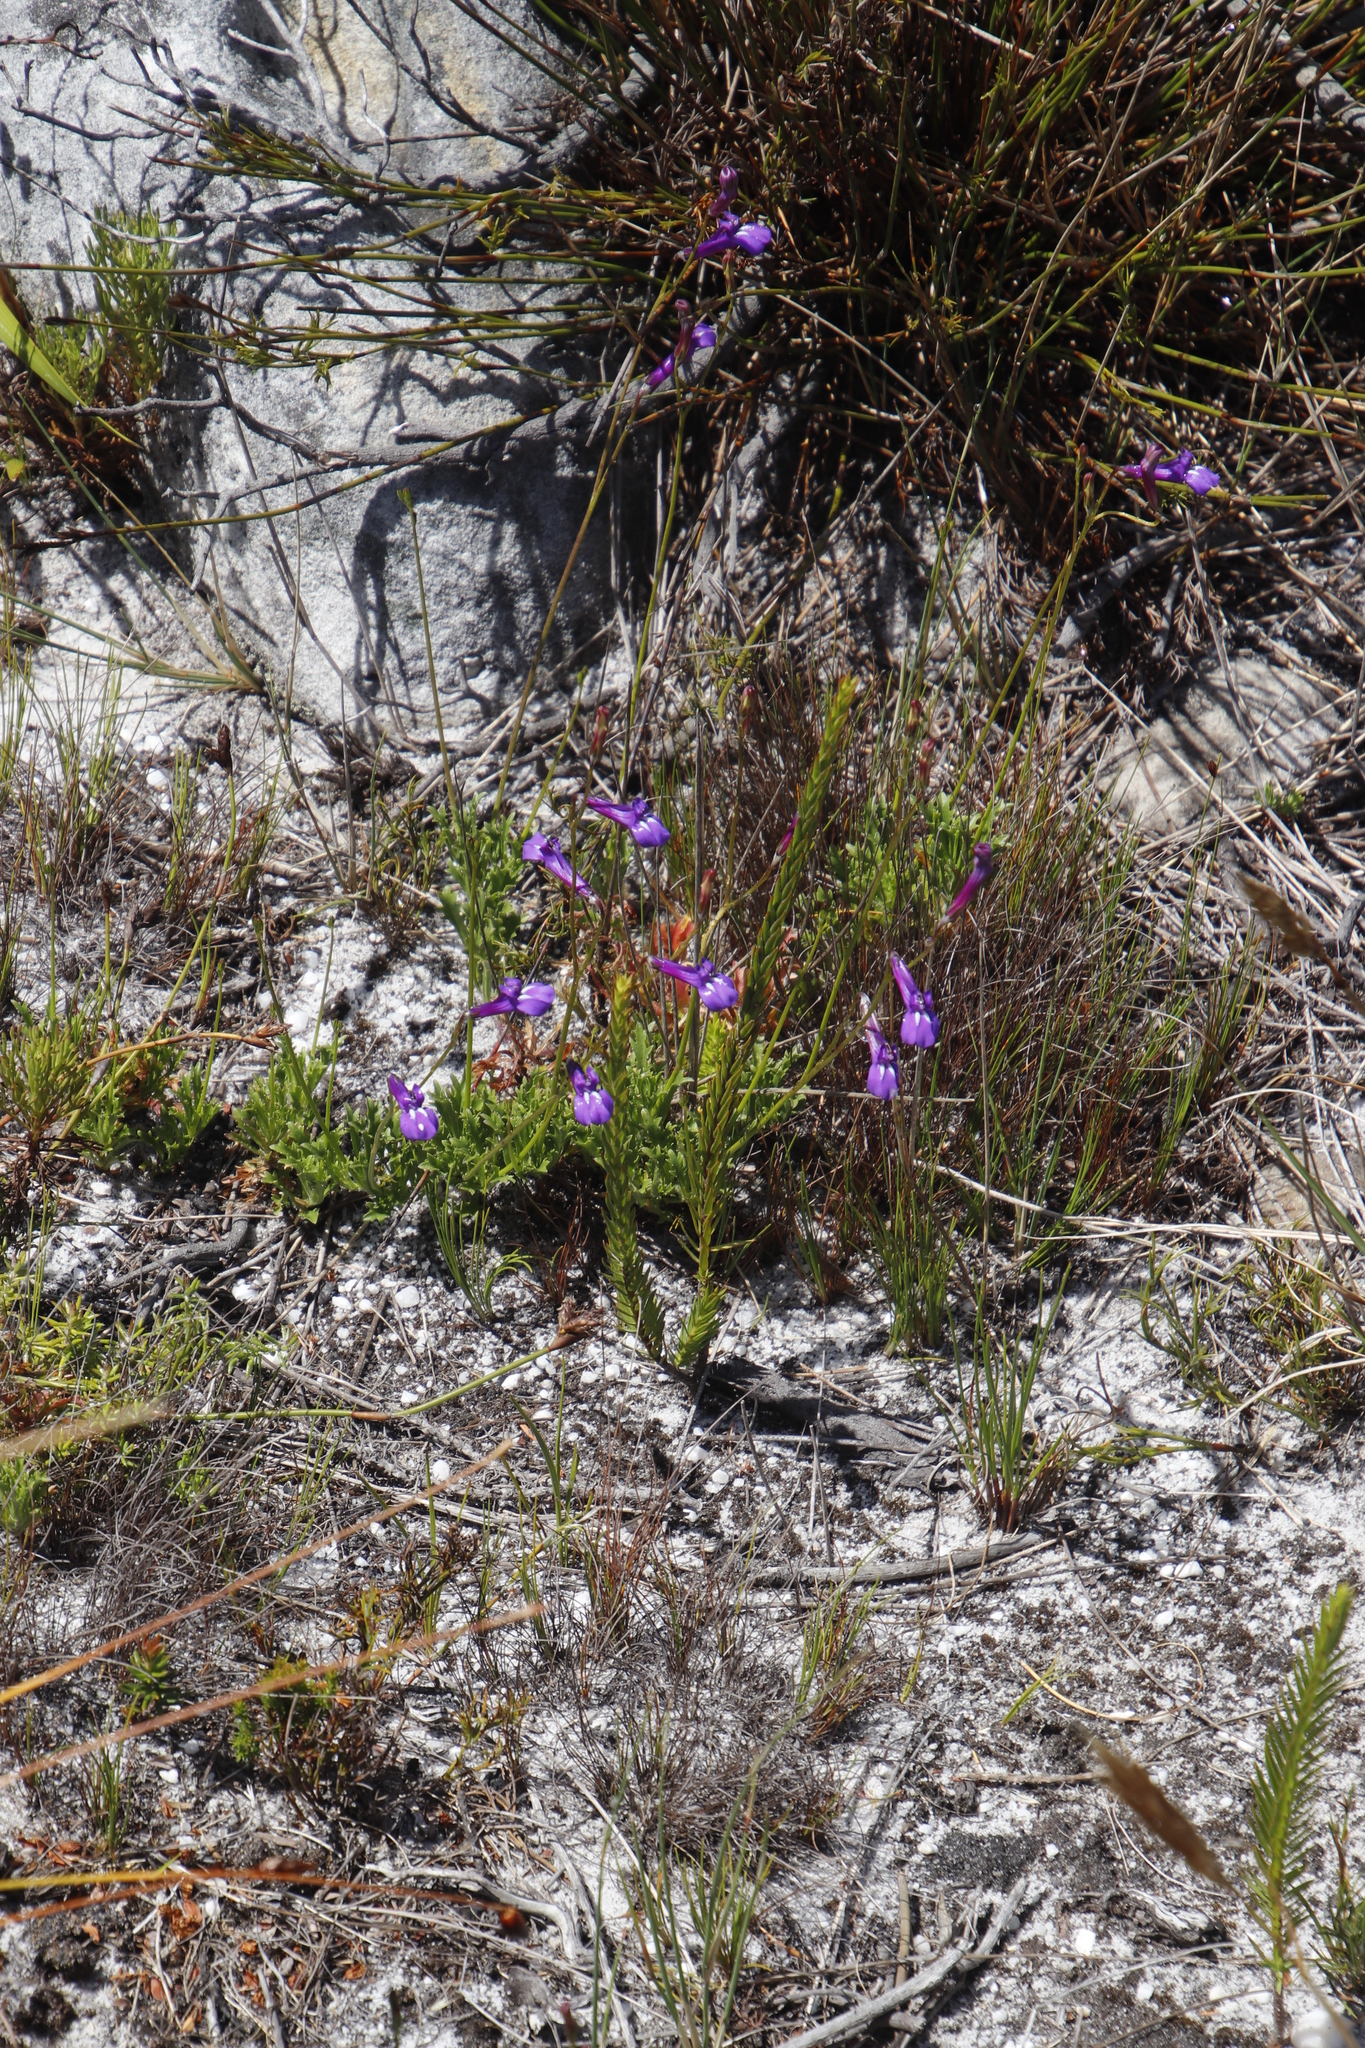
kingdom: Plantae
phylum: Tracheophyta
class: Magnoliopsida
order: Asterales
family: Campanulaceae
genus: Lobelia
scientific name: Lobelia coronopifolia
